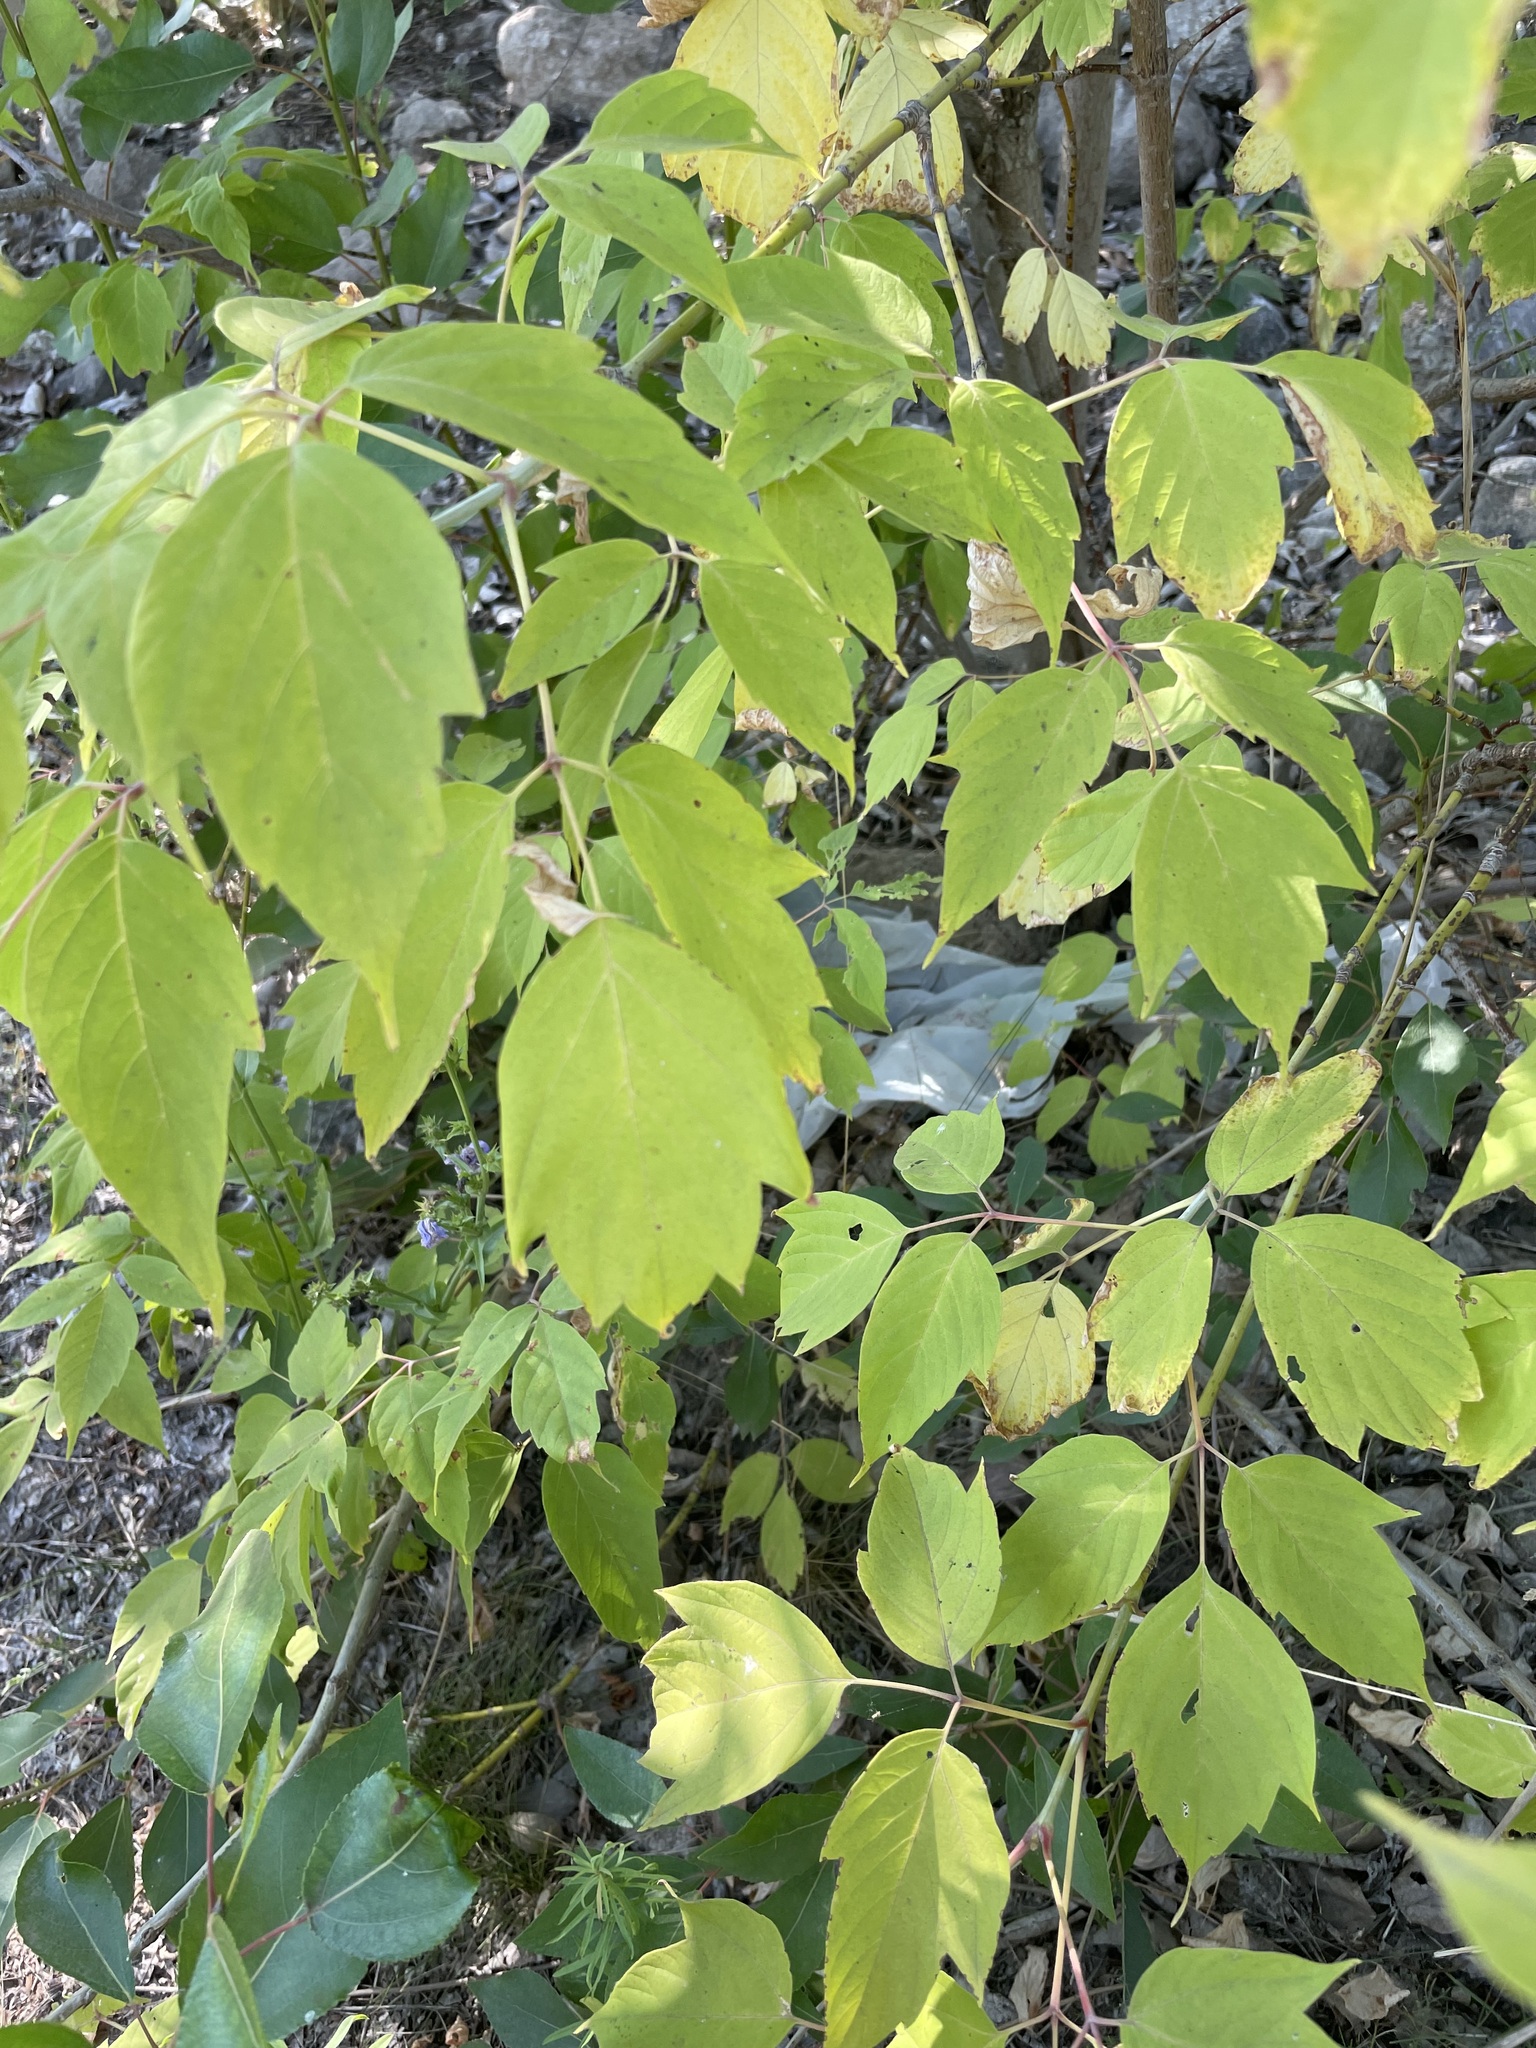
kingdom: Plantae
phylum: Tracheophyta
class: Magnoliopsida
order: Sapindales
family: Sapindaceae
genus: Acer
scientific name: Acer negundo
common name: Ashleaf maple
